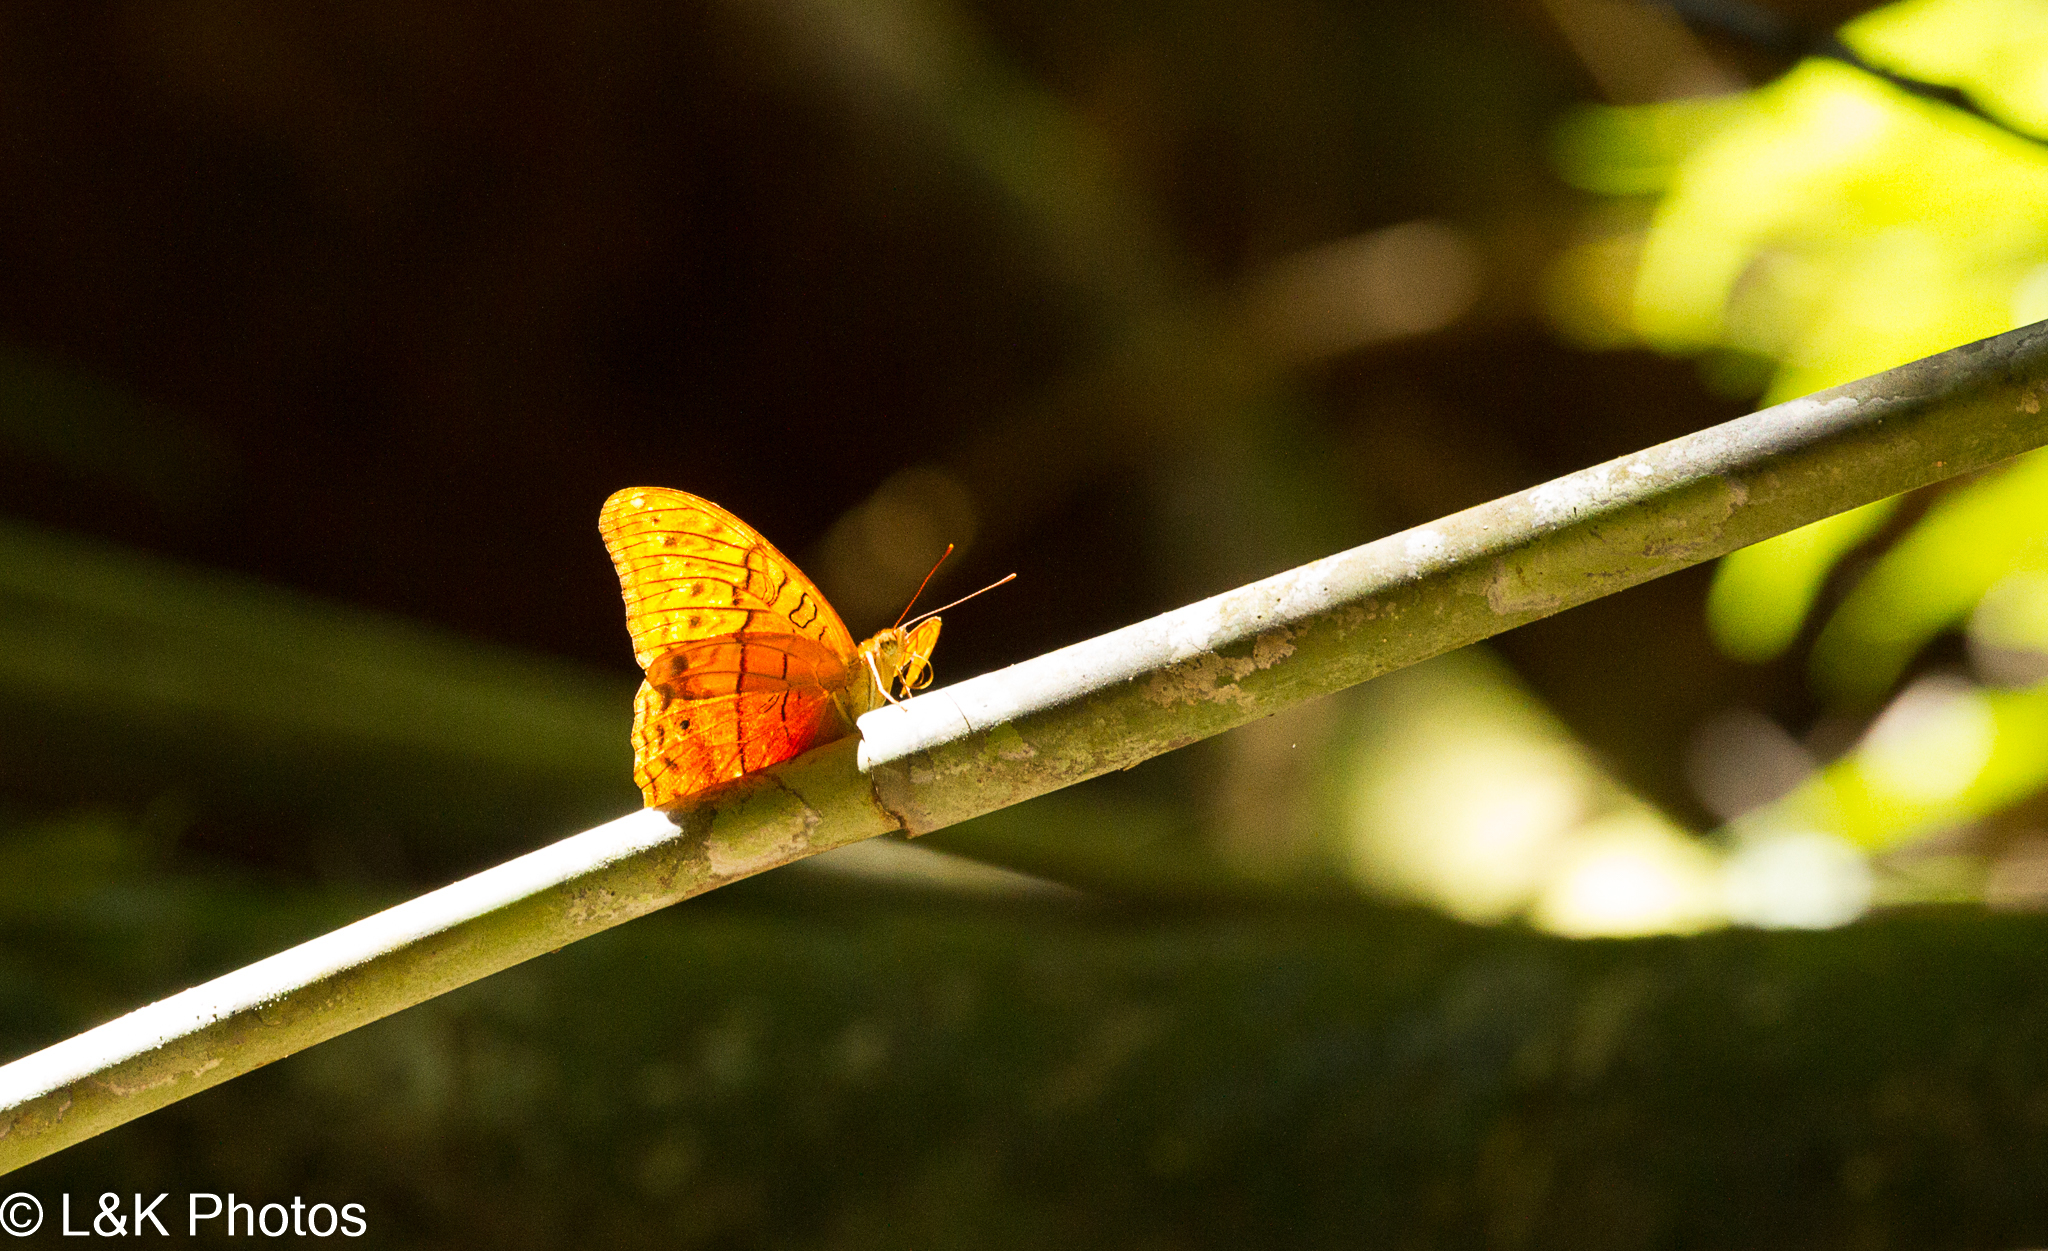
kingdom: Animalia
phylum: Arthropoda
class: Insecta
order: Lepidoptera
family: Nymphalidae
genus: Vindula
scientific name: Vindula arsinoe
